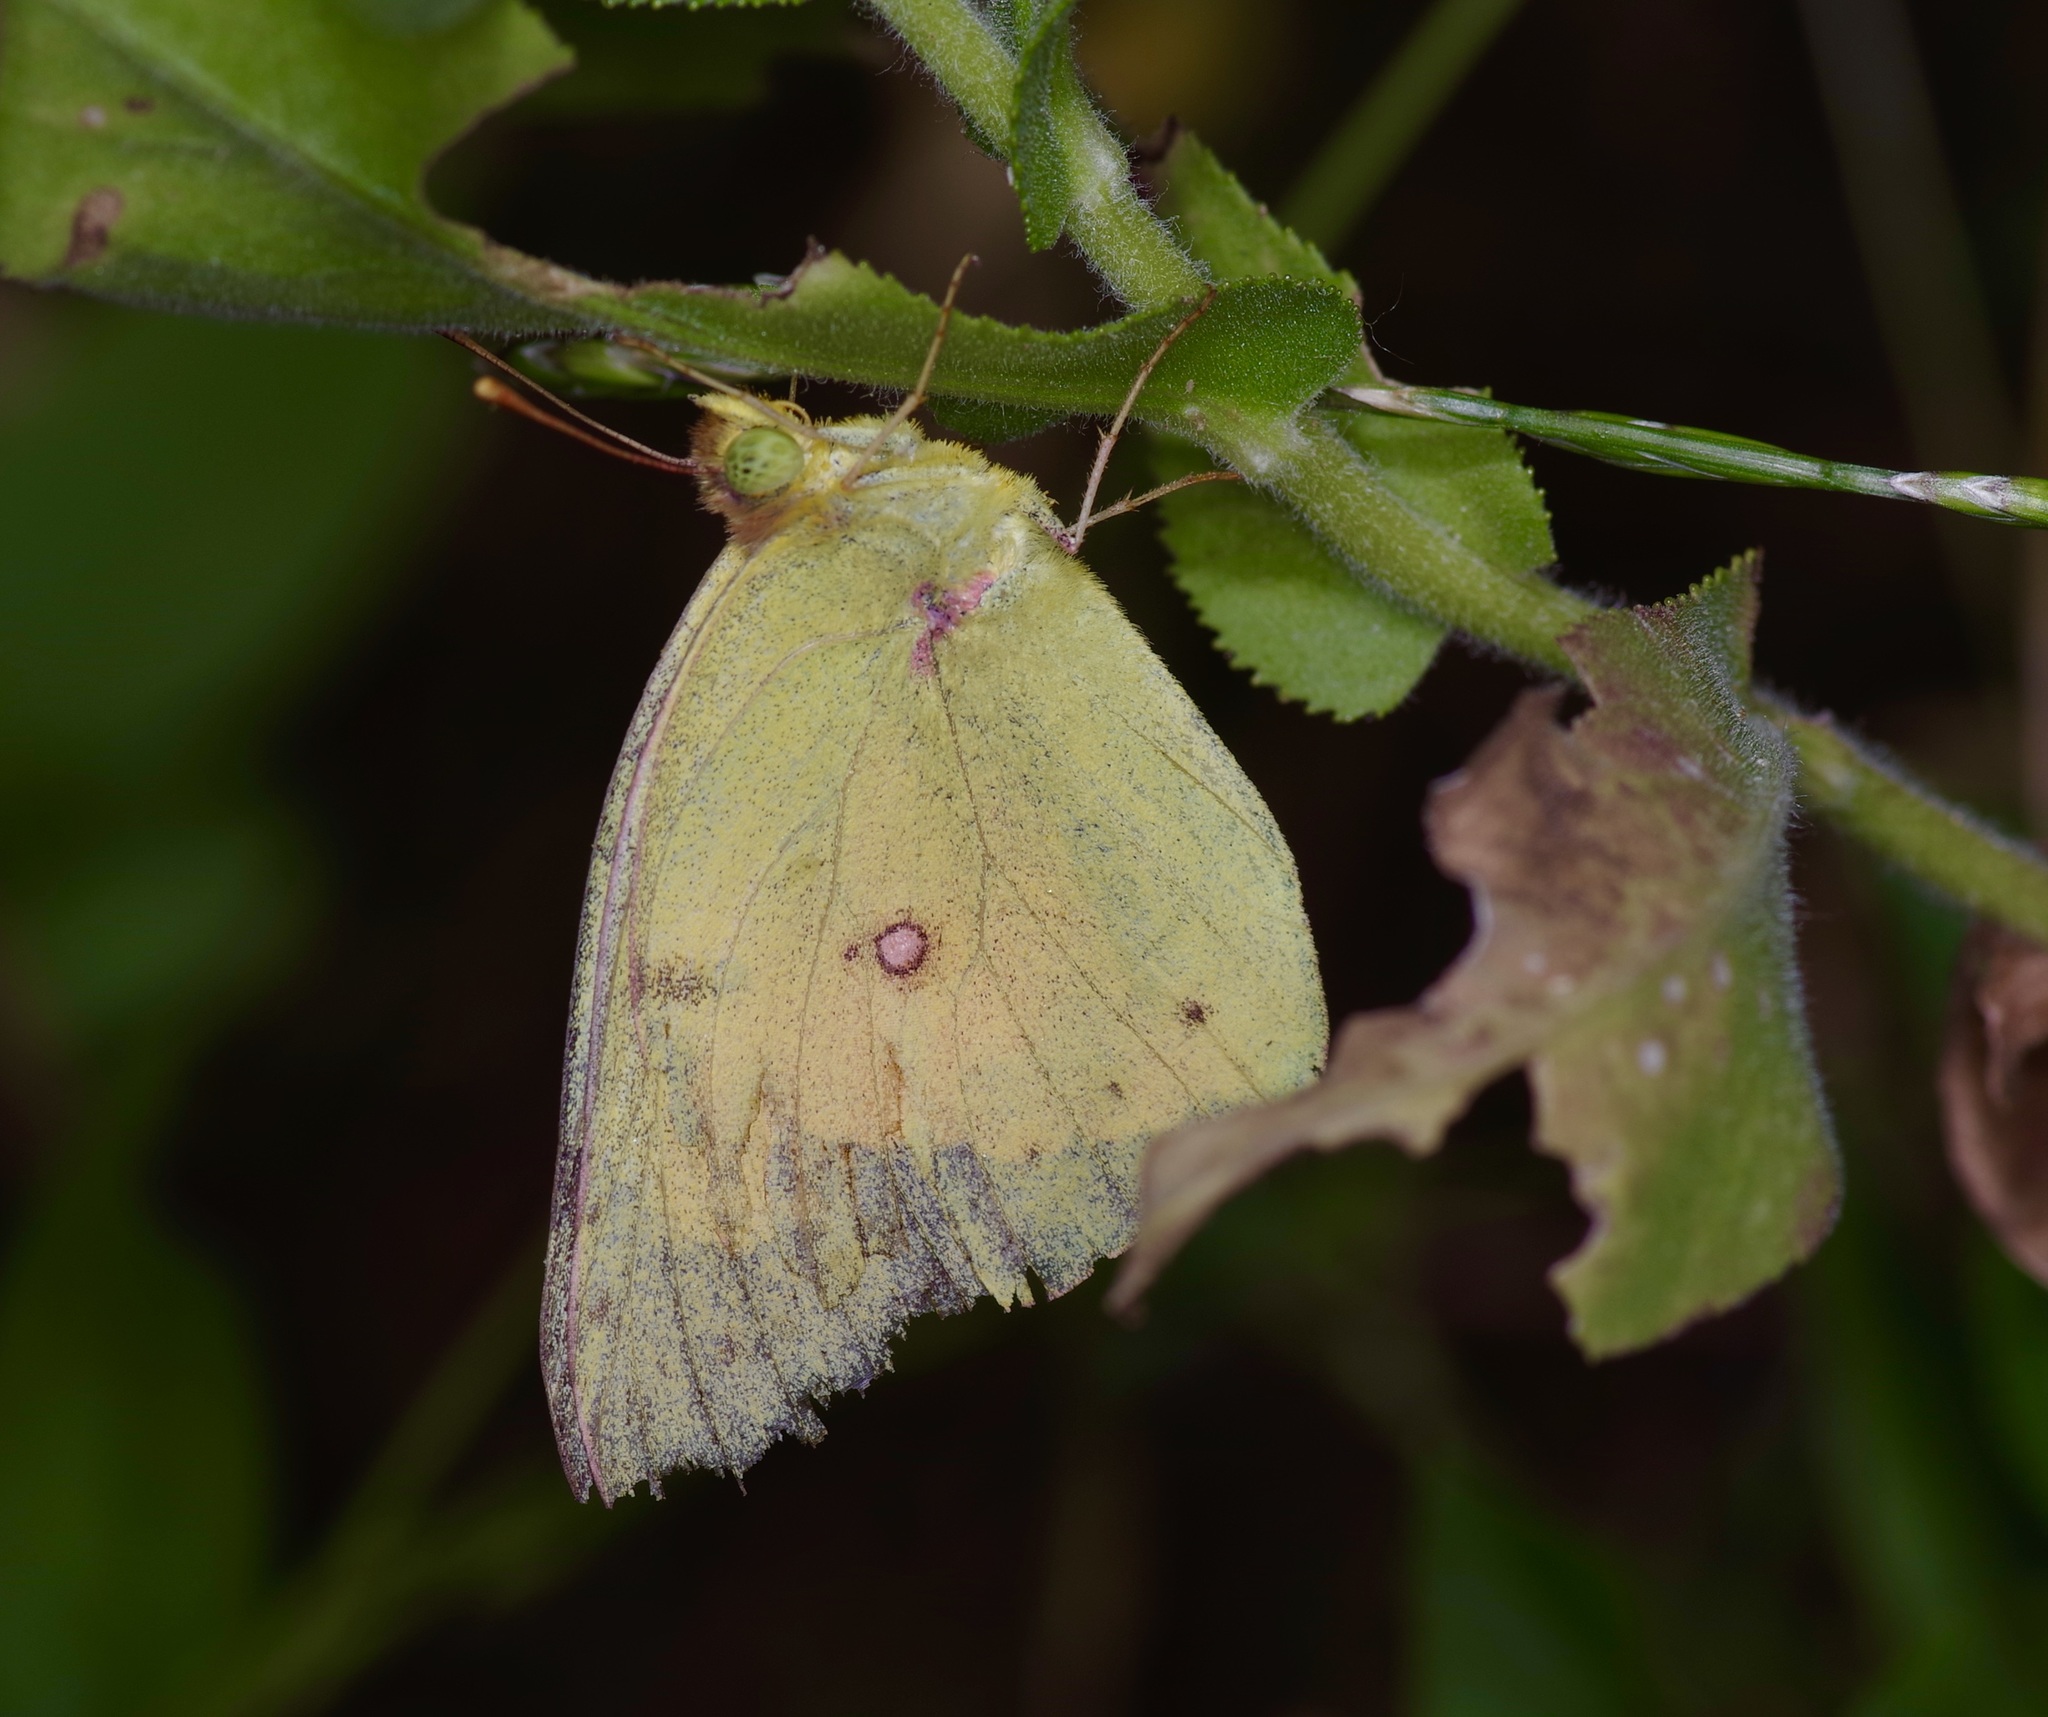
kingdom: Animalia
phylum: Arthropoda
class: Insecta
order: Lepidoptera
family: Pieridae
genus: Colias
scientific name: Colias eurytheme
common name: Alfalfa butterfly
